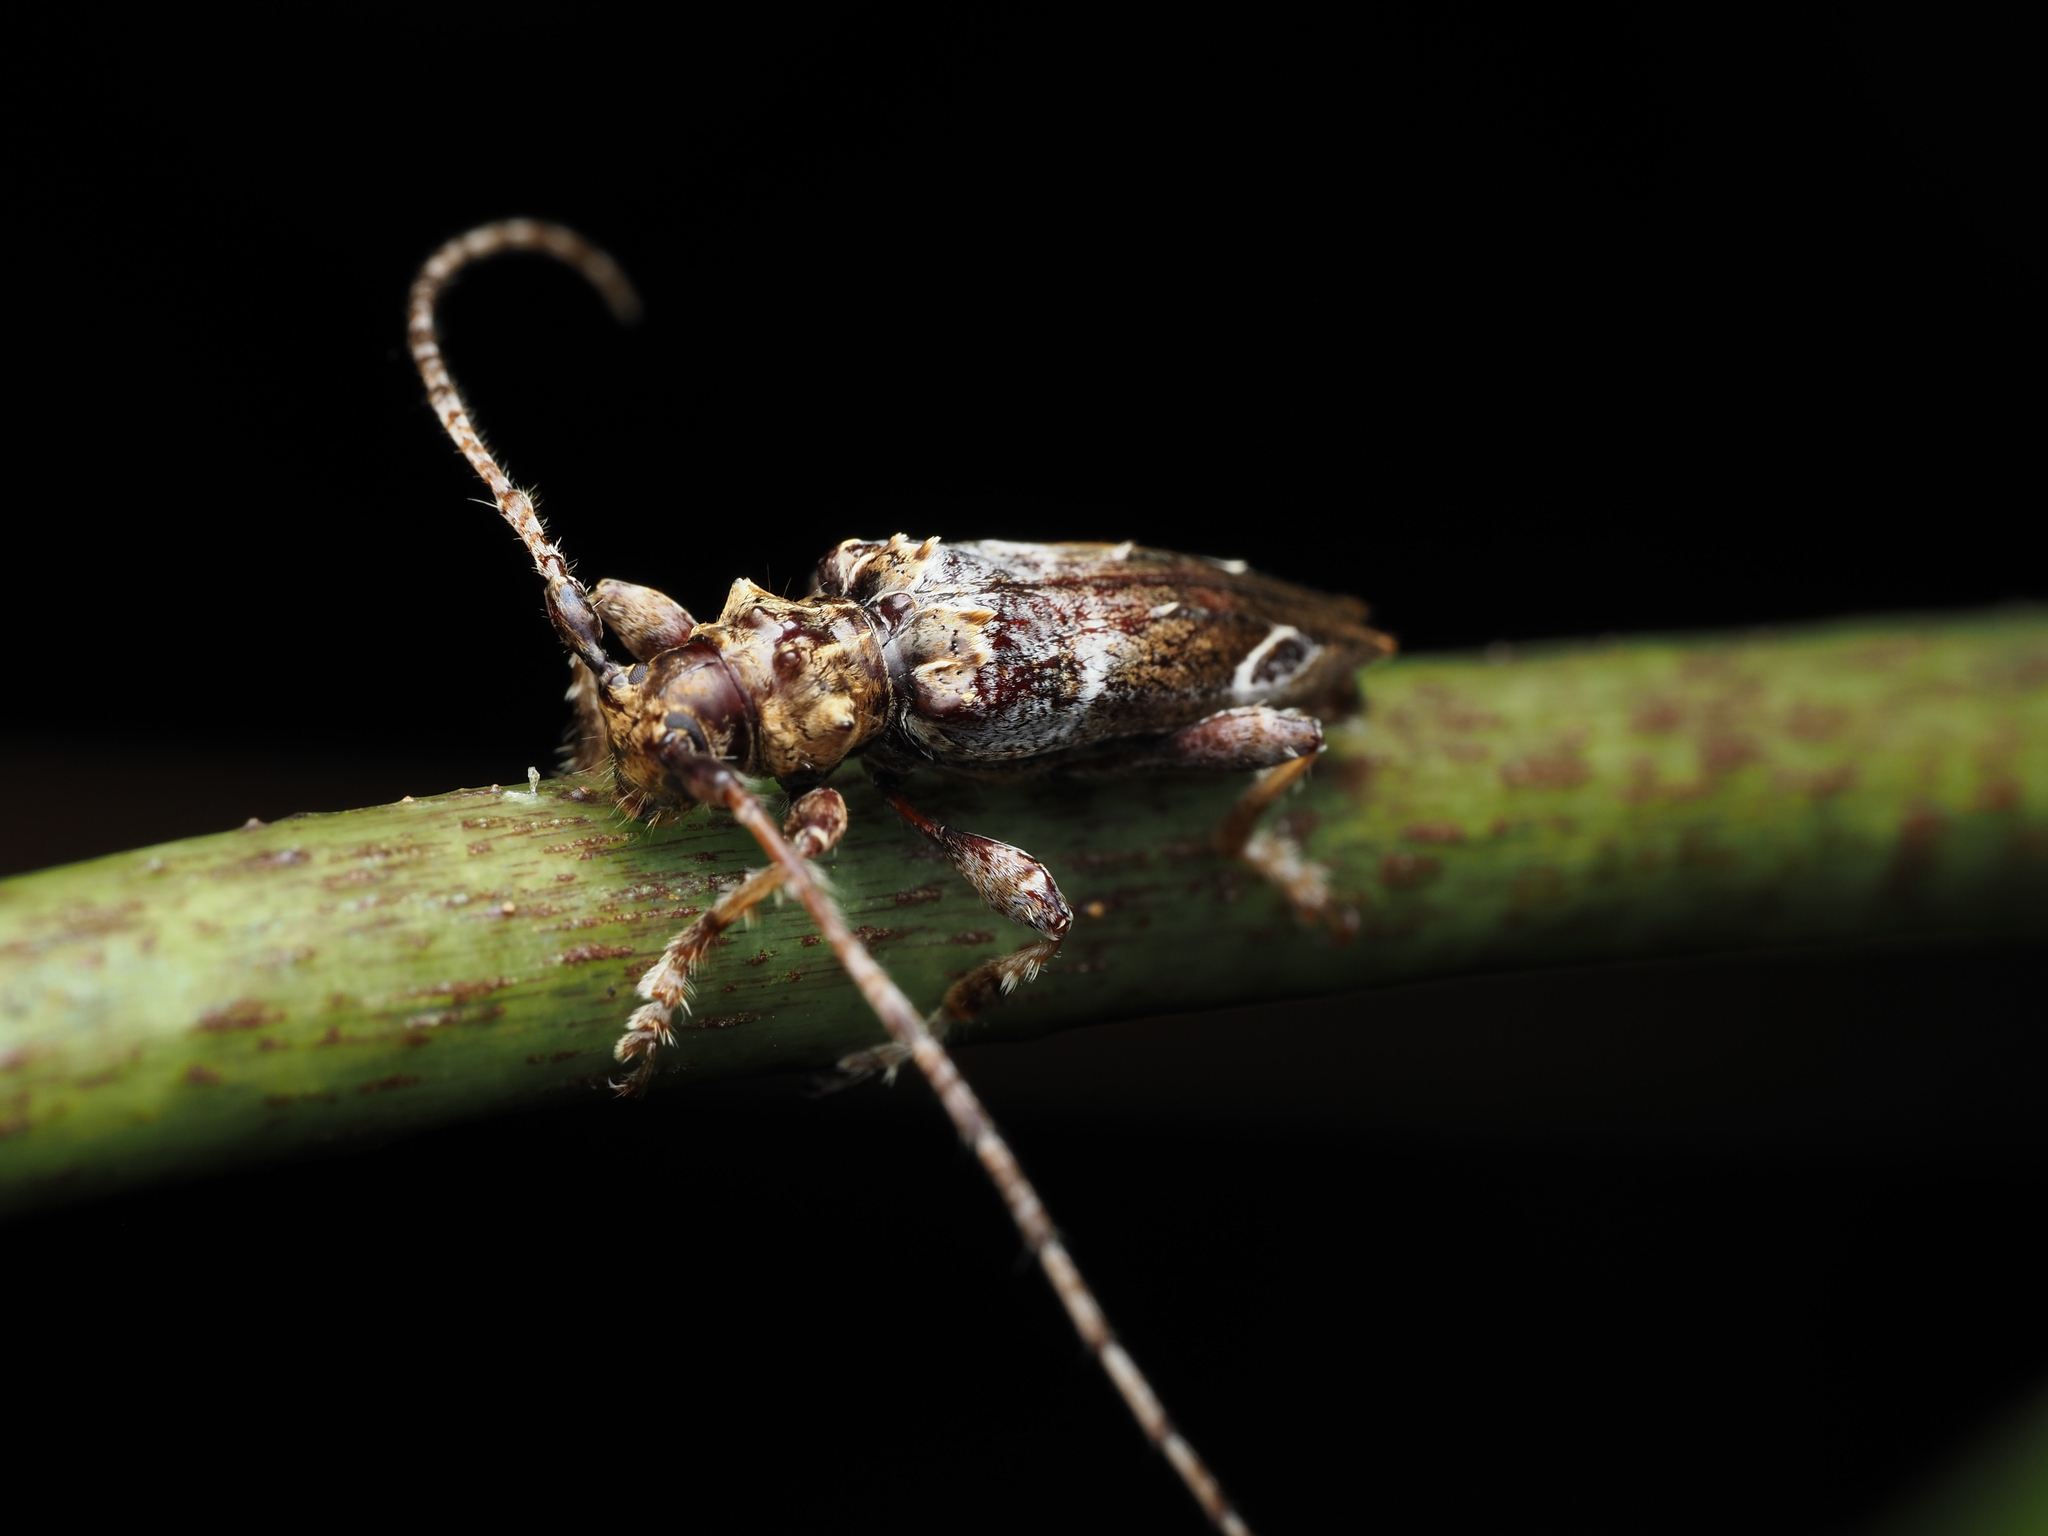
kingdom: Animalia
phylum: Arthropoda
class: Insecta
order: Coleoptera
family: Cerambycidae
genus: Tetrorea
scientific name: Tetrorea cilipes
